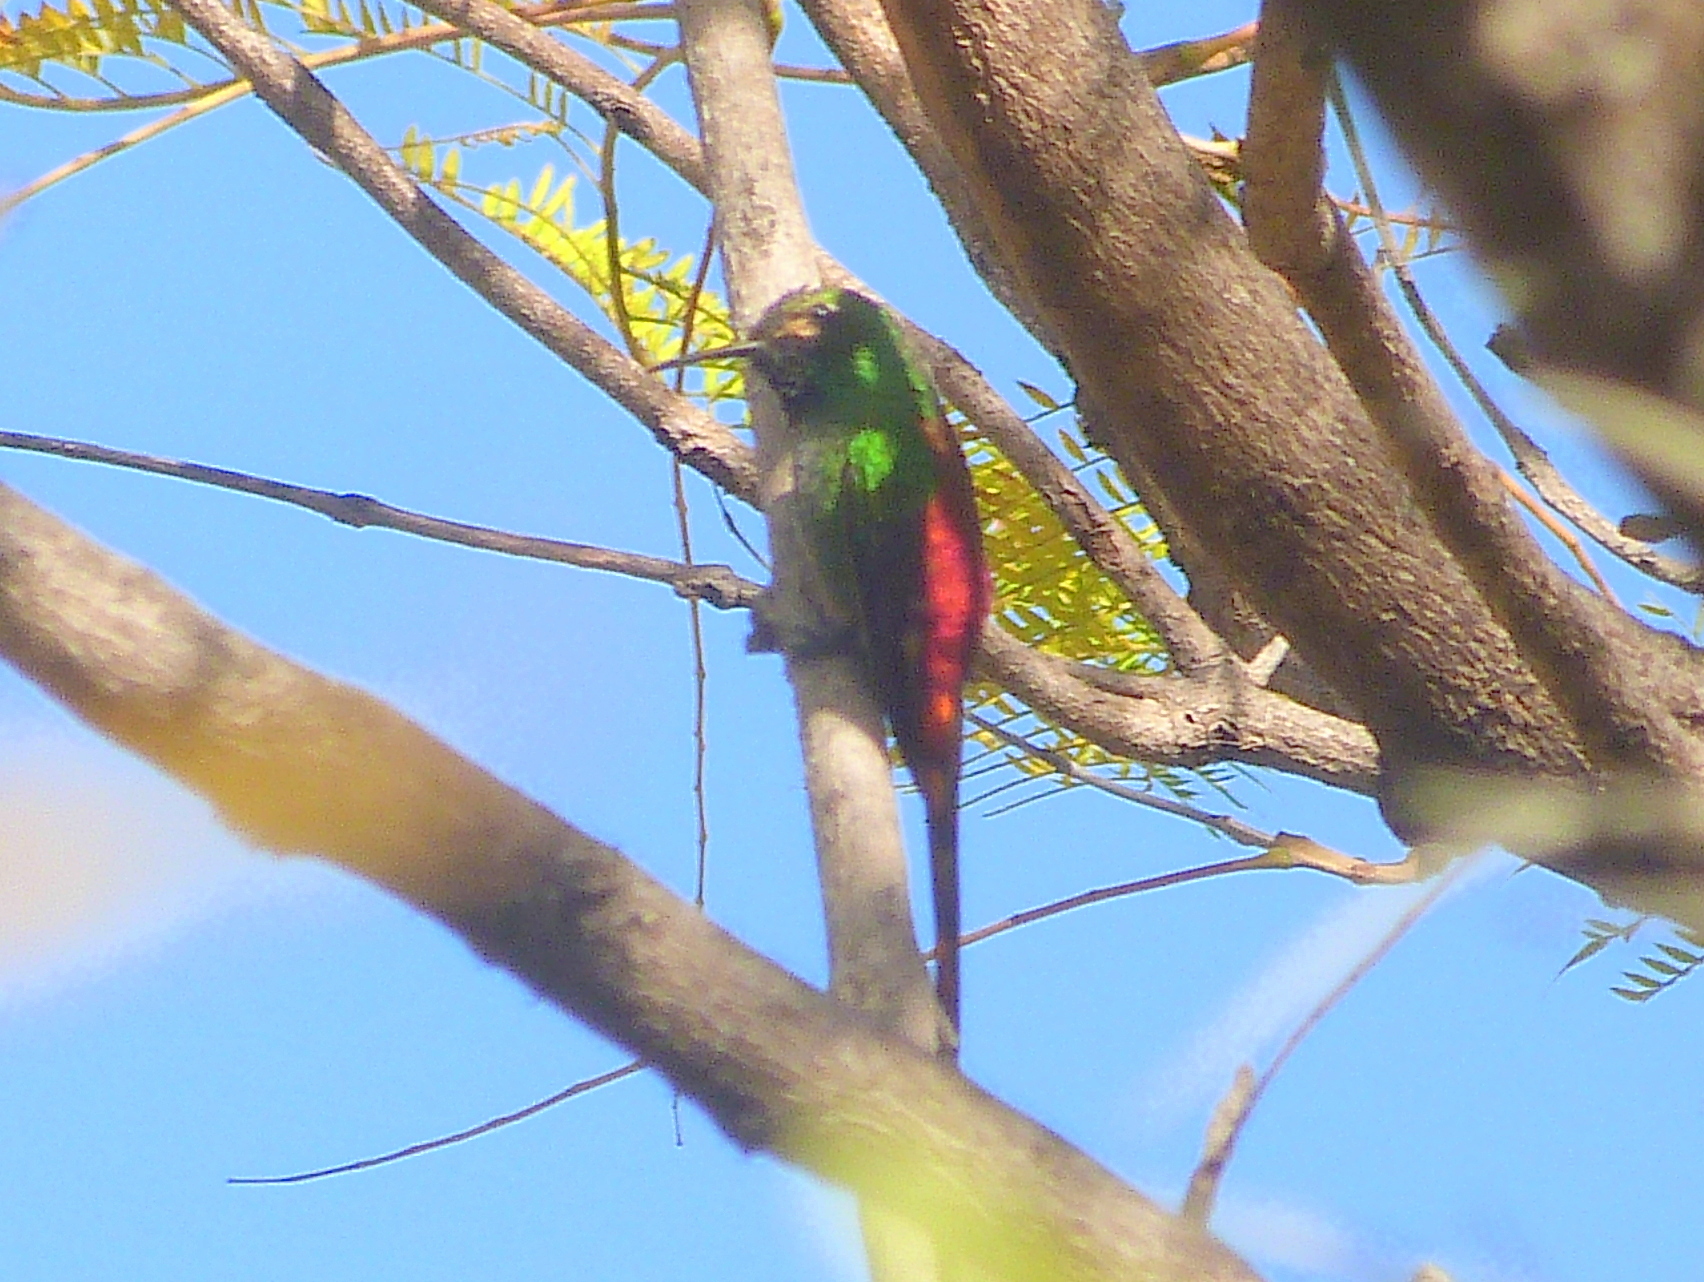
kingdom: Animalia
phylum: Chordata
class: Aves
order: Apodiformes
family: Trochilidae
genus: Sappho
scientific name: Sappho sparganurus
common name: Red-tailed comet
